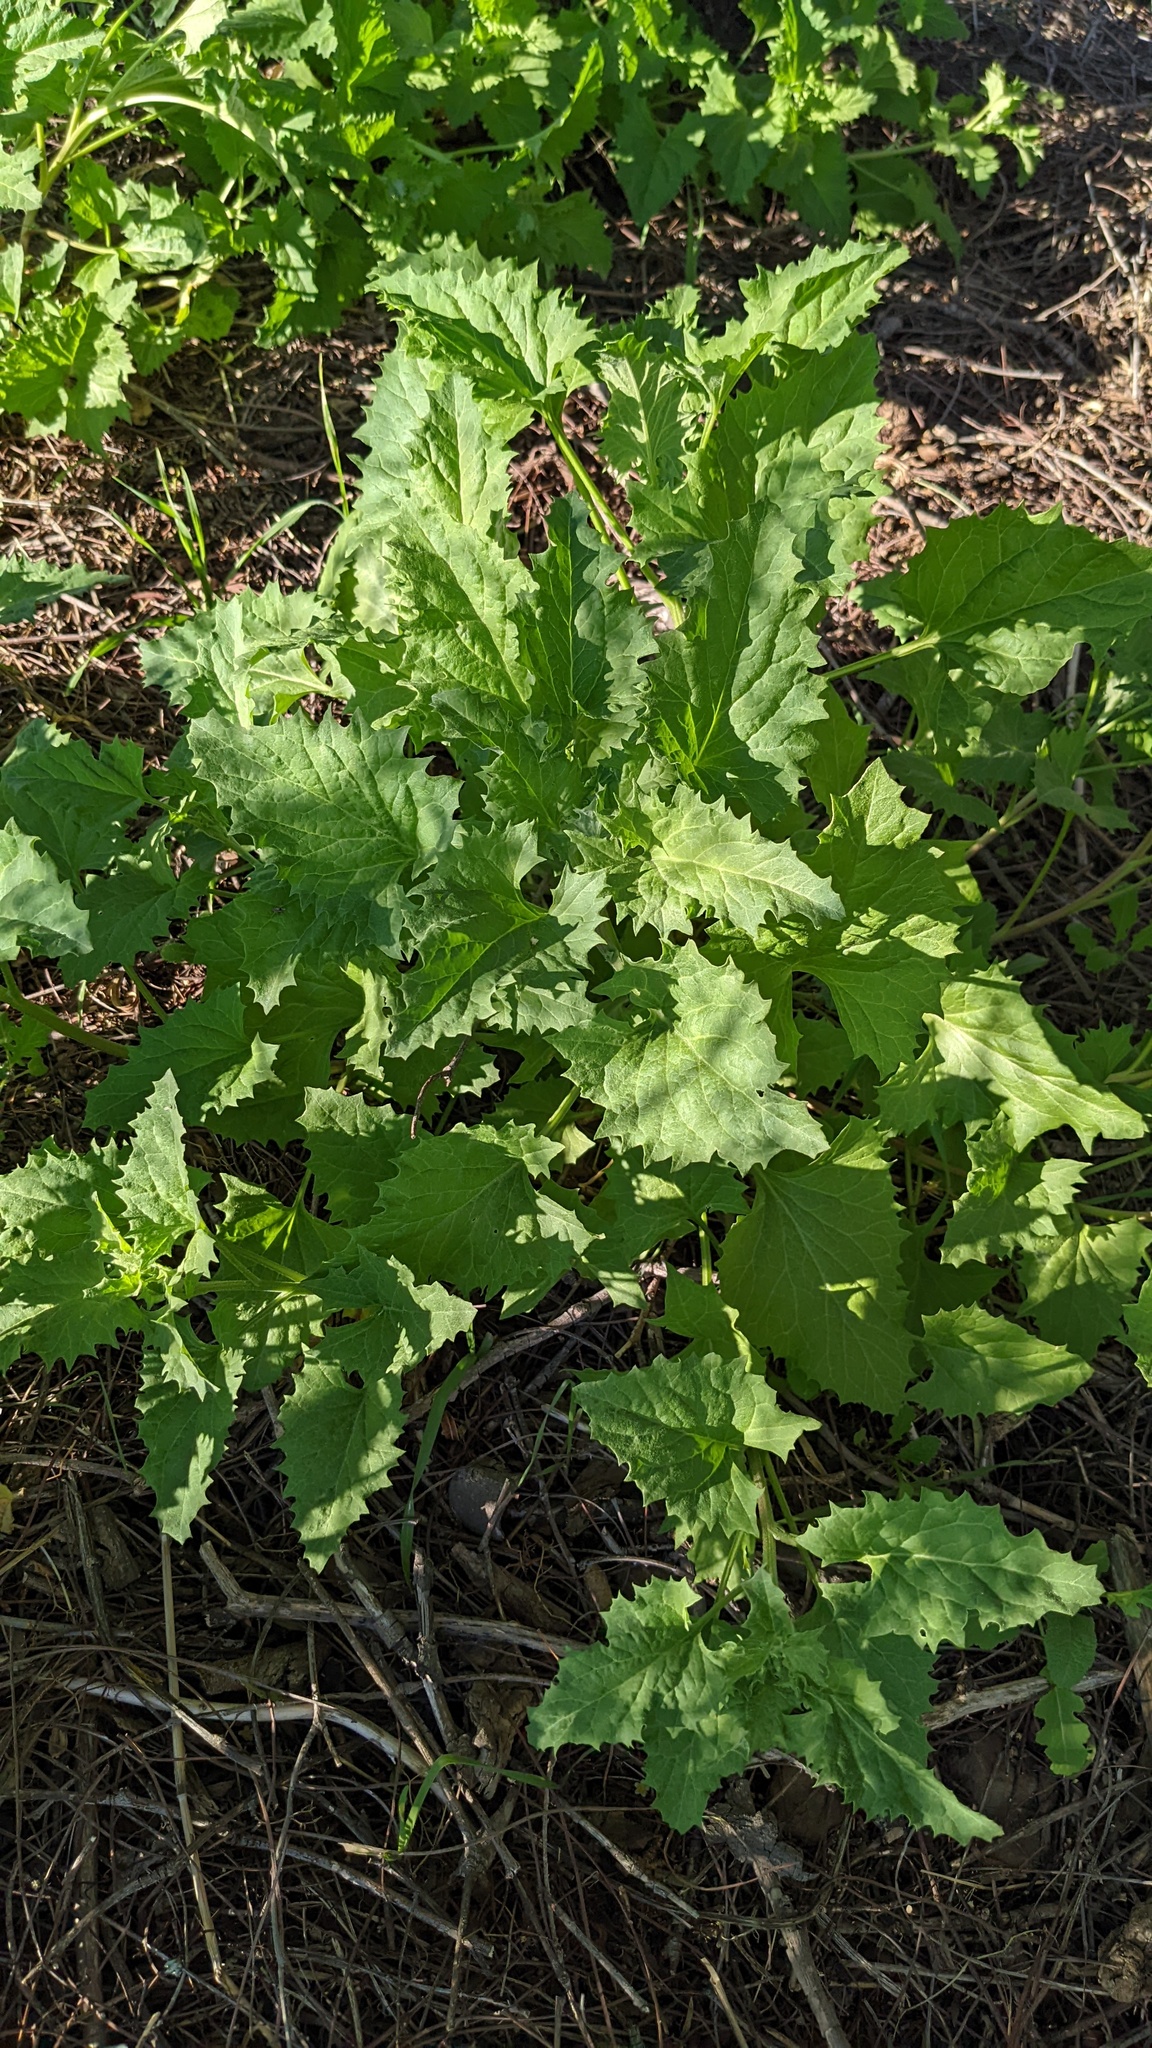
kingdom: Plantae
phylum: Tracheophyta
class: Magnoliopsida
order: Caryophyllales
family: Amaranthaceae
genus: Blitum
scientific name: Blitum californicum
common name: California goosefoot
